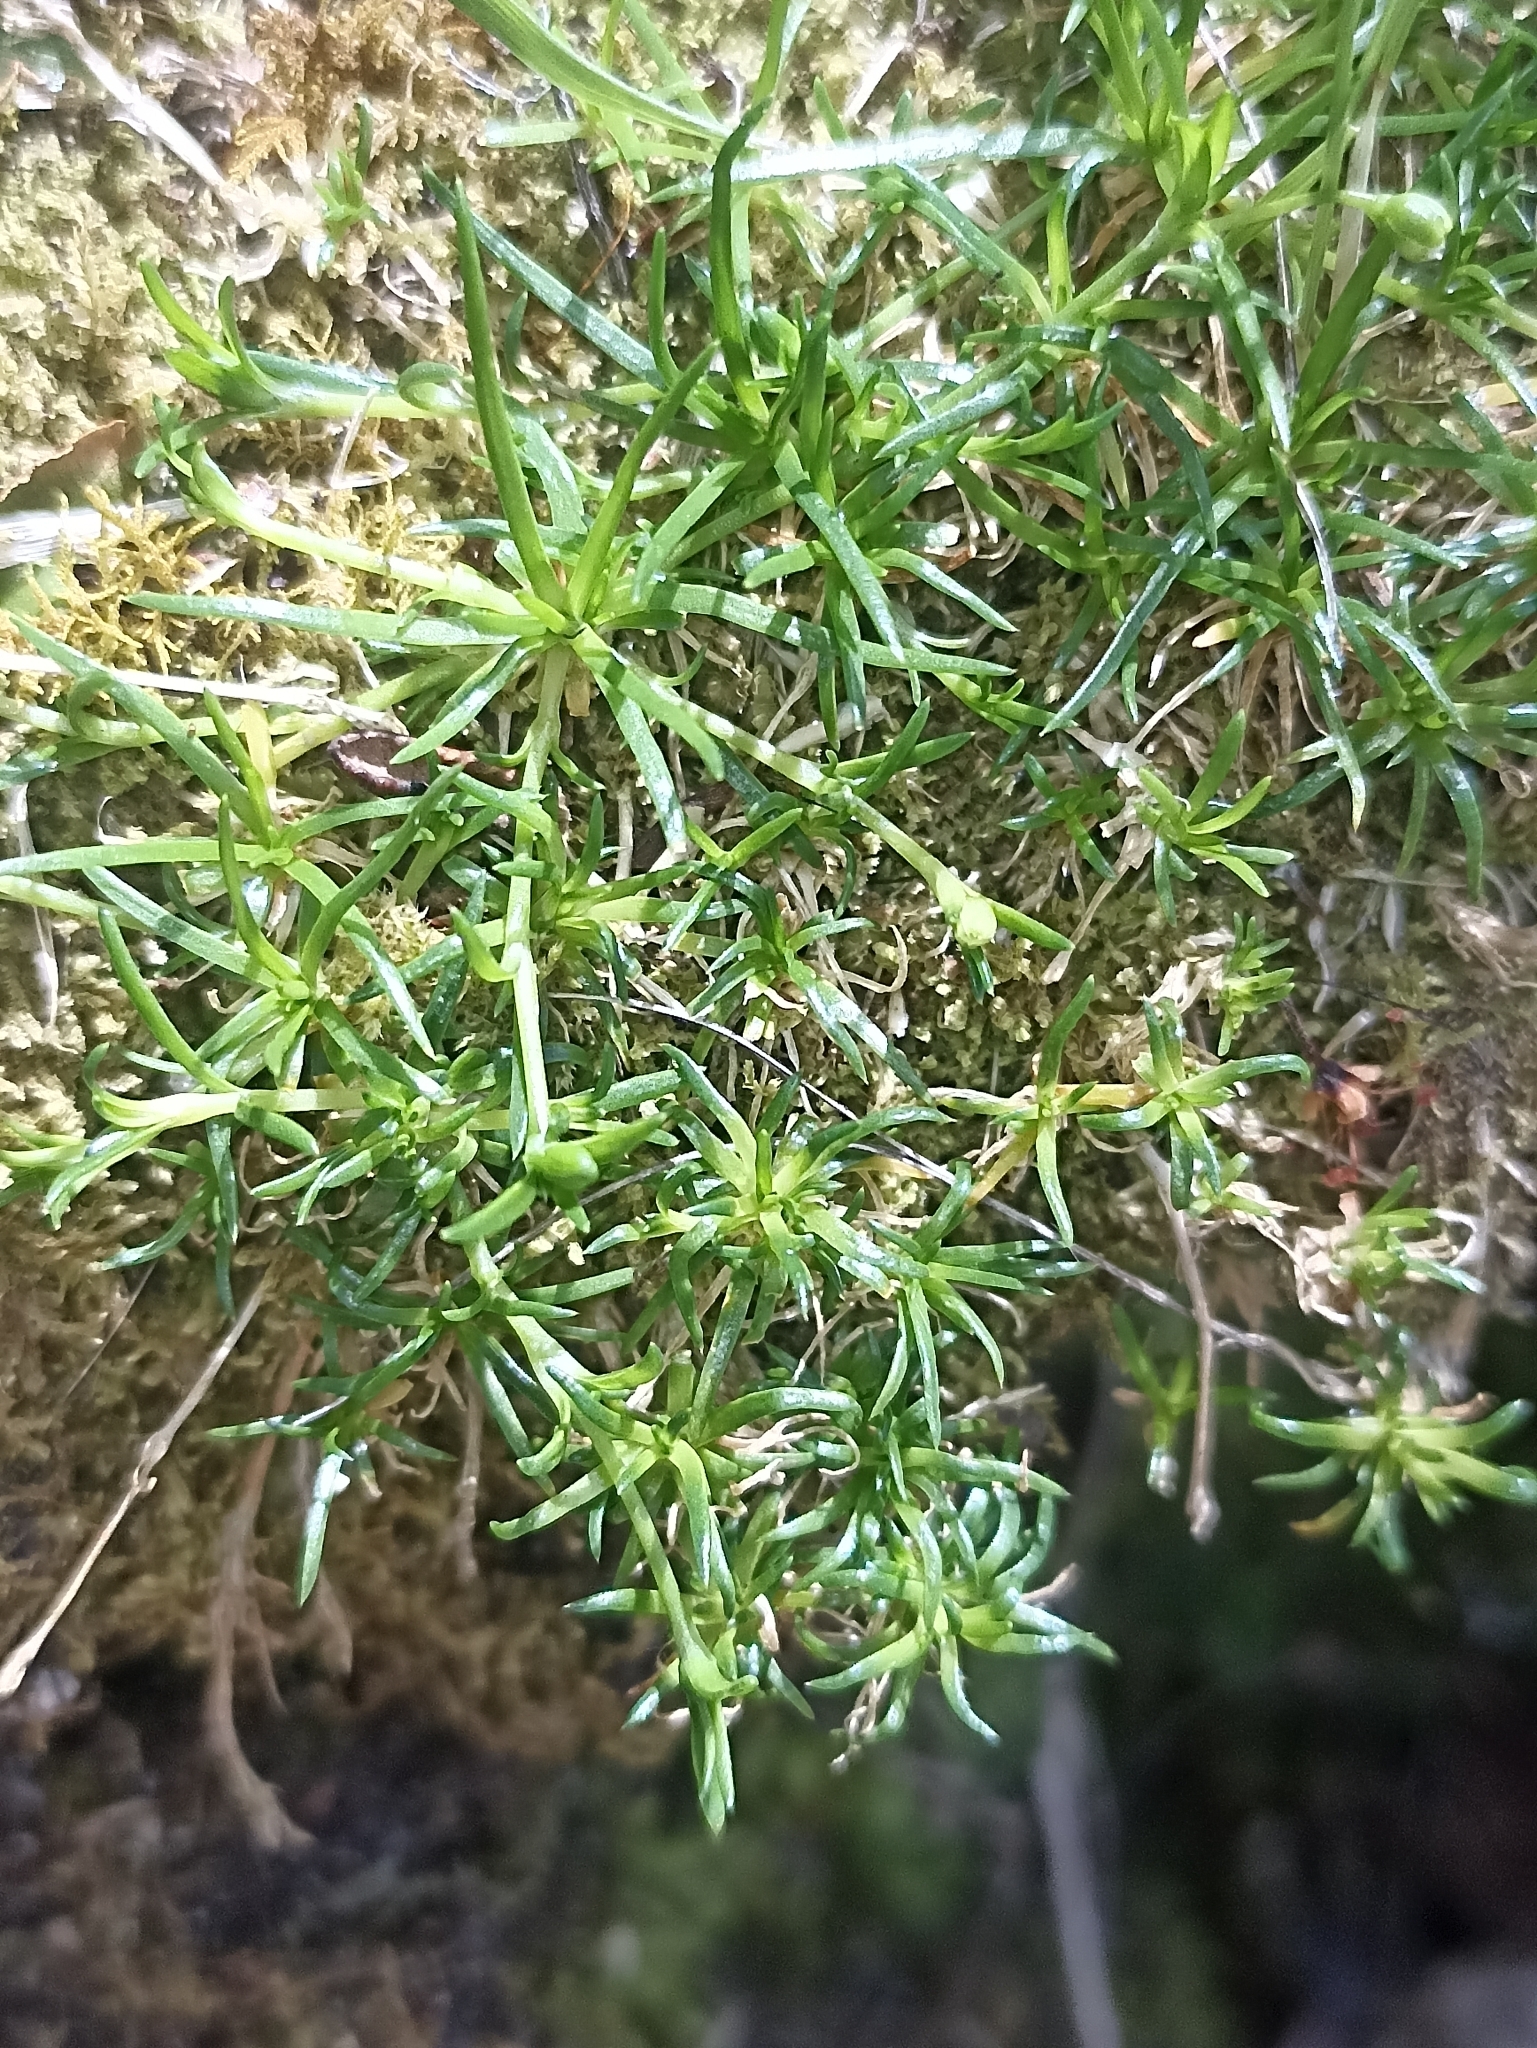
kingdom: Plantae
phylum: Tracheophyta
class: Magnoliopsida
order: Caryophyllales
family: Caryophyllaceae
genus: Sagina
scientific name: Sagina procumbens
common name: Procumbent pearlwort
